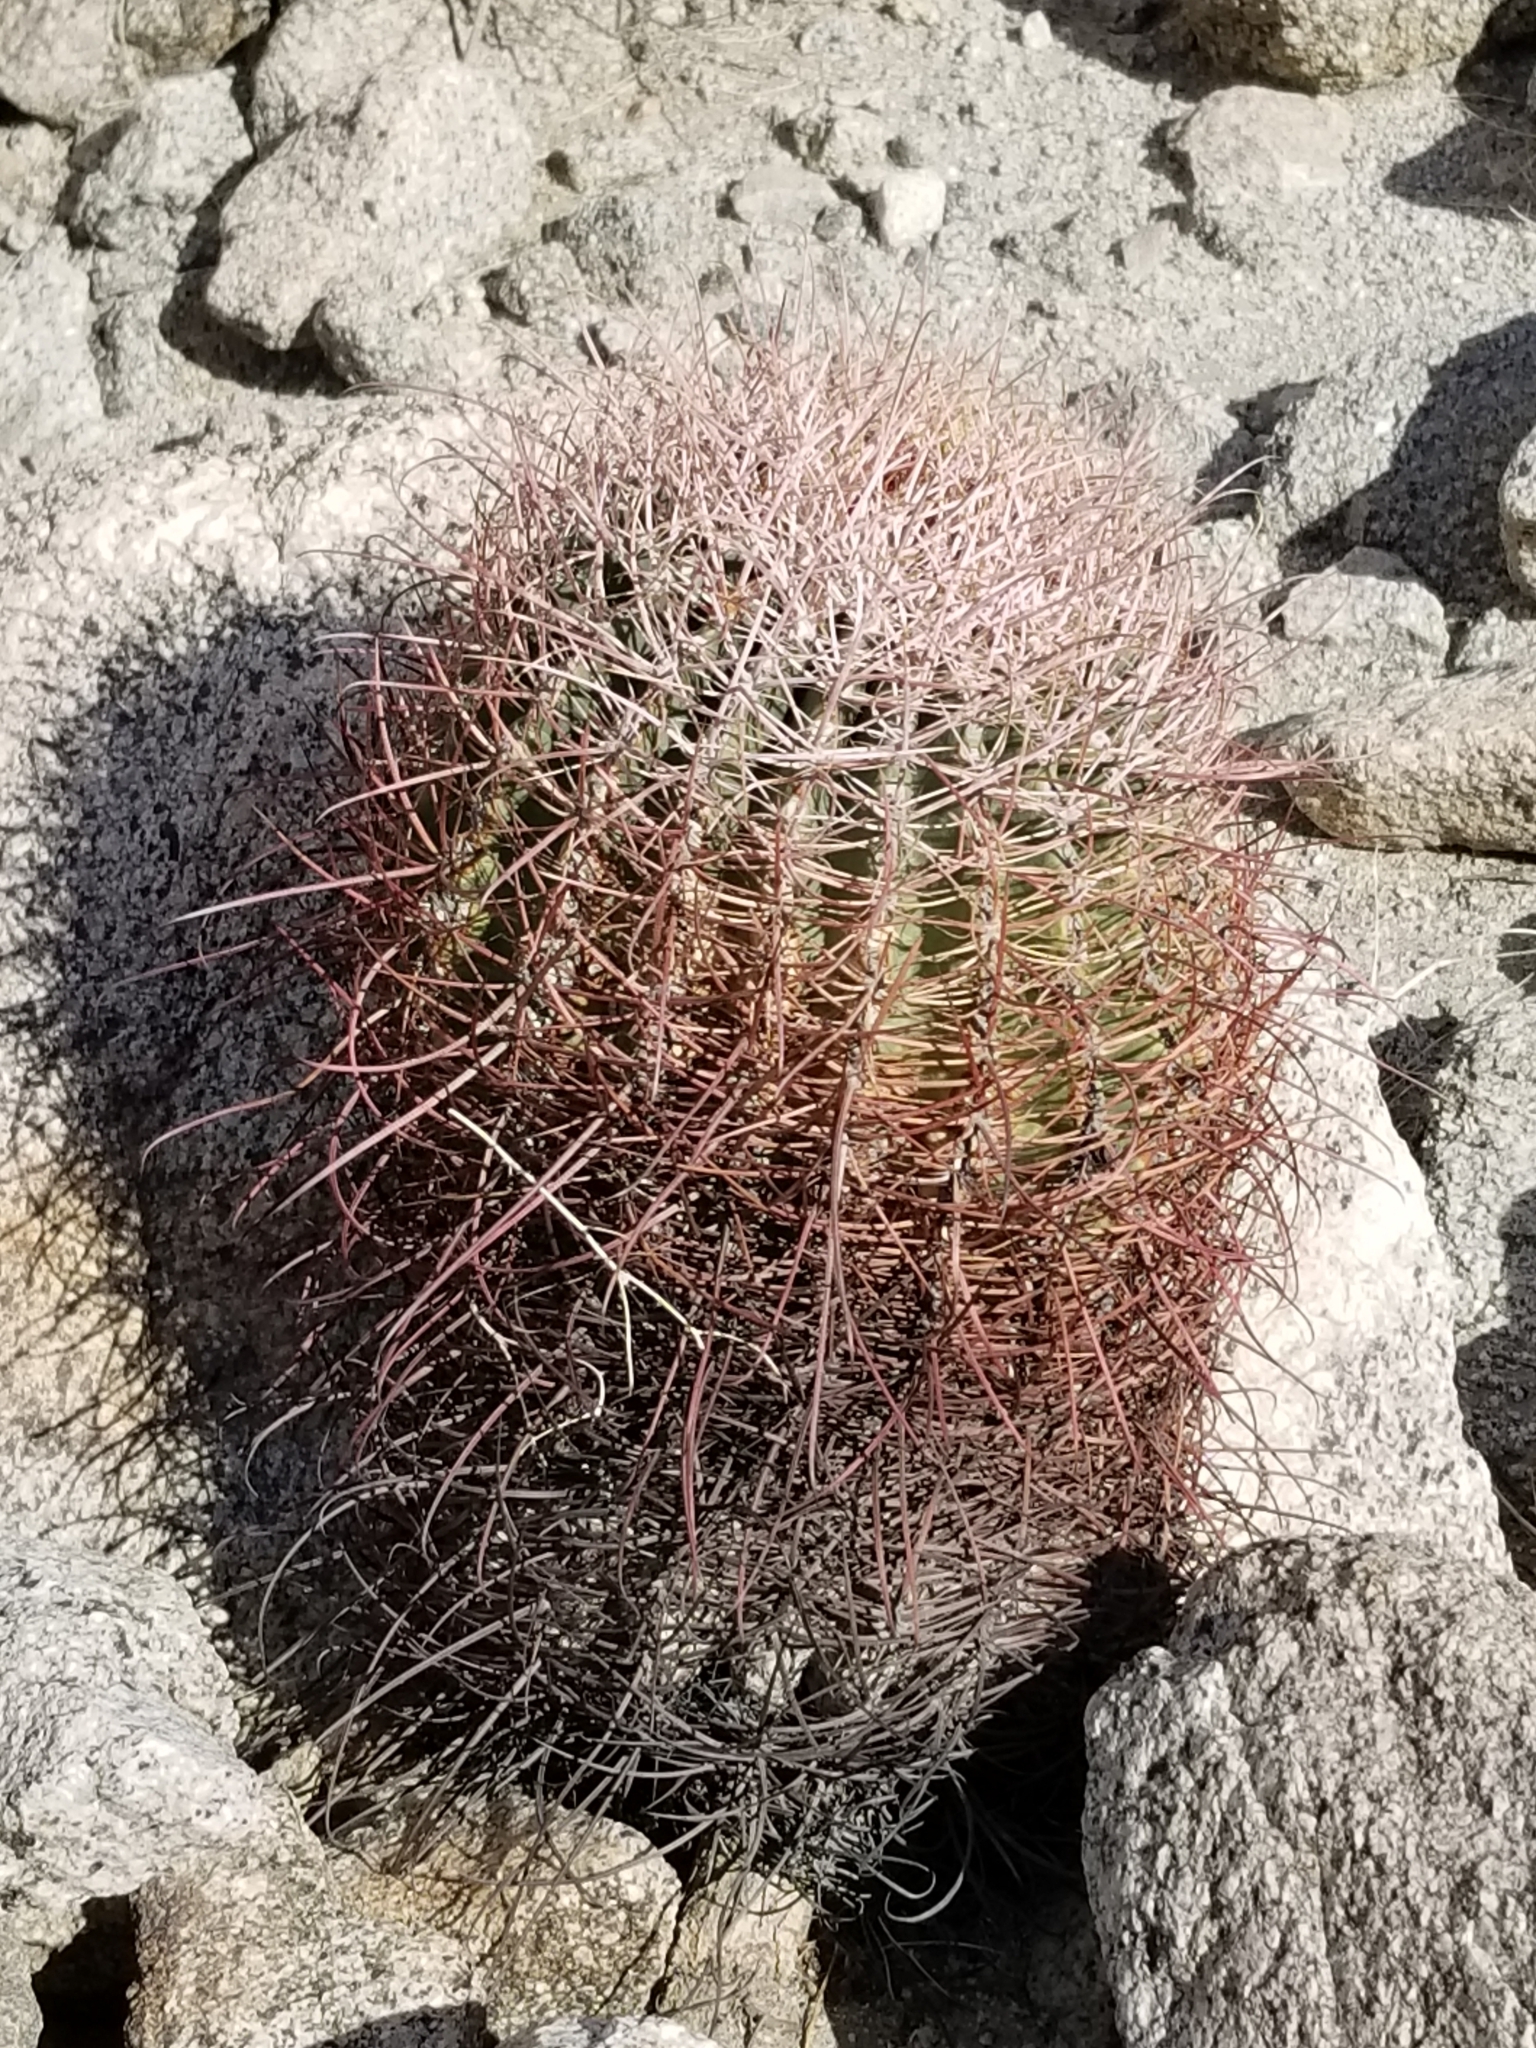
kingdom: Plantae
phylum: Tracheophyta
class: Magnoliopsida
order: Caryophyllales
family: Cactaceae
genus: Ferocactus
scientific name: Ferocactus cylindraceus
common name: California barrel cactus
